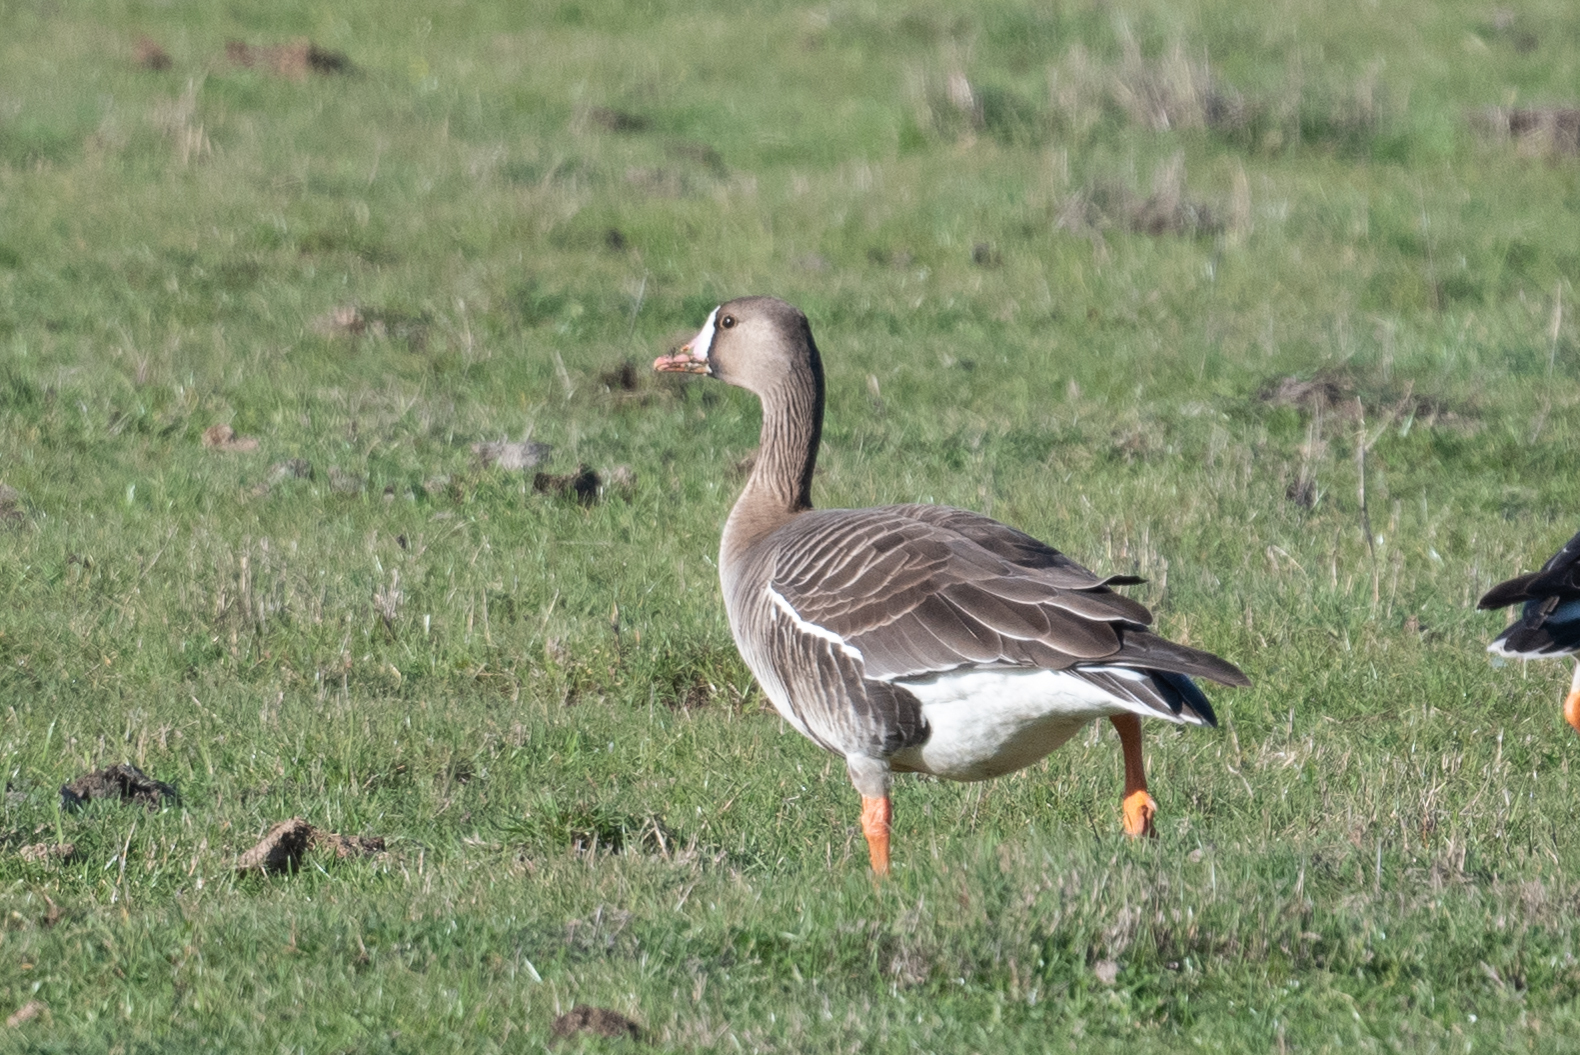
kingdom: Animalia
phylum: Chordata
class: Aves
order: Anseriformes
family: Anatidae
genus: Anser
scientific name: Anser albifrons
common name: Greater white-fronted goose
